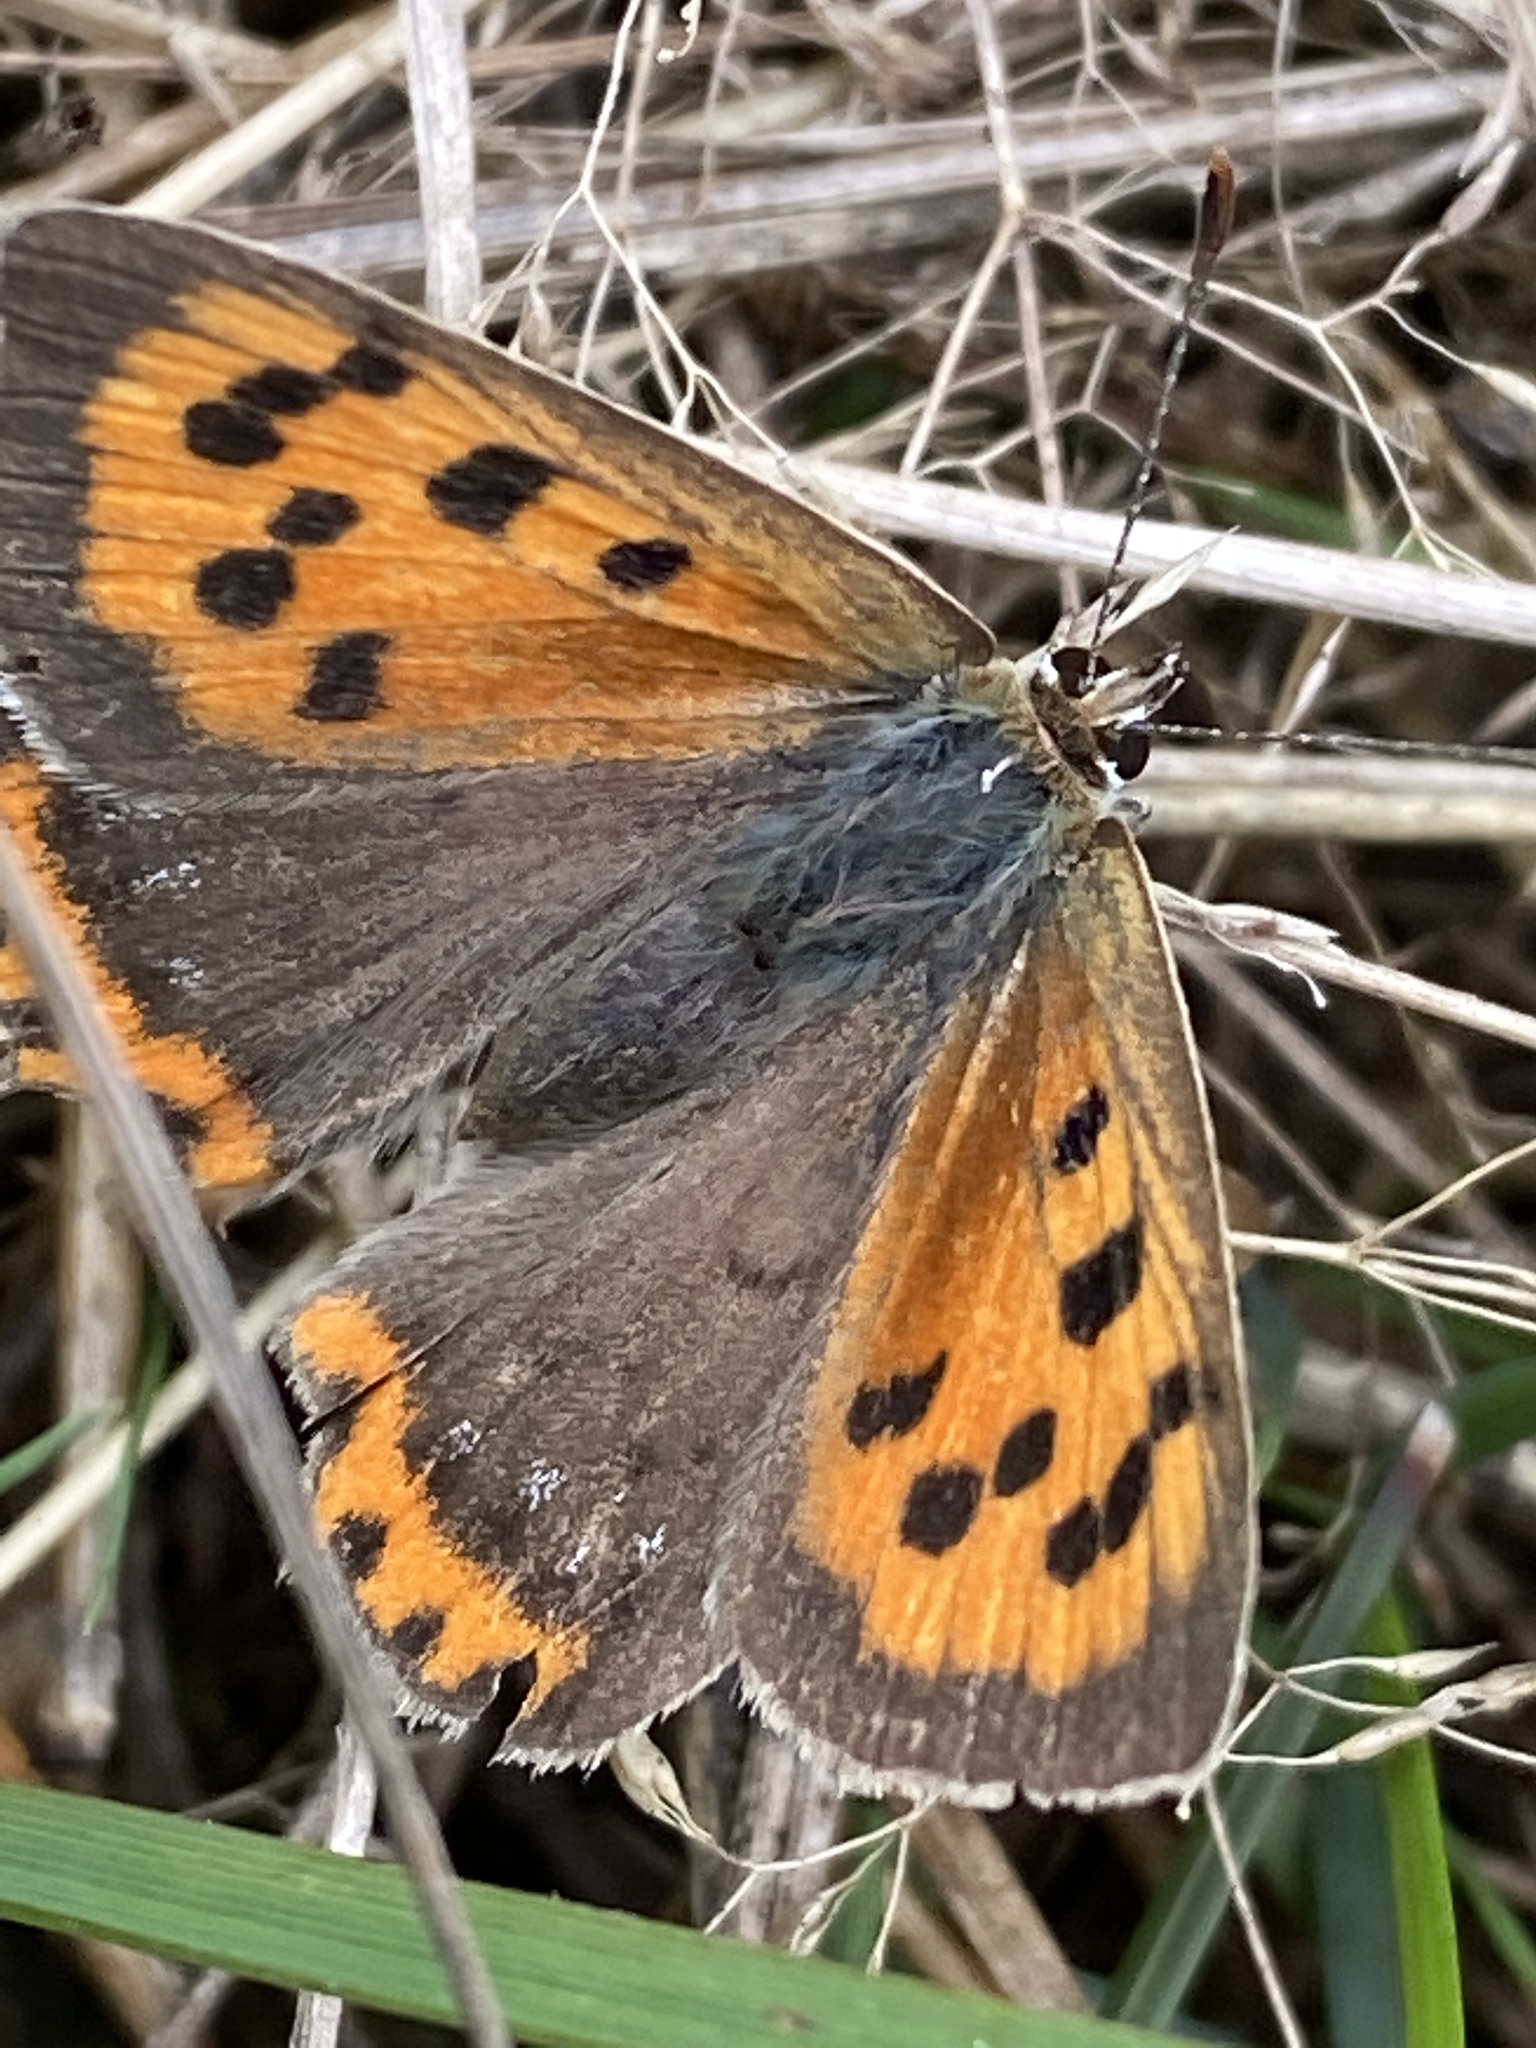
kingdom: Animalia
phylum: Arthropoda
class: Insecta
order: Lepidoptera
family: Lycaenidae
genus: Lycaena
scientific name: Lycaena phlaeas
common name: Small copper
